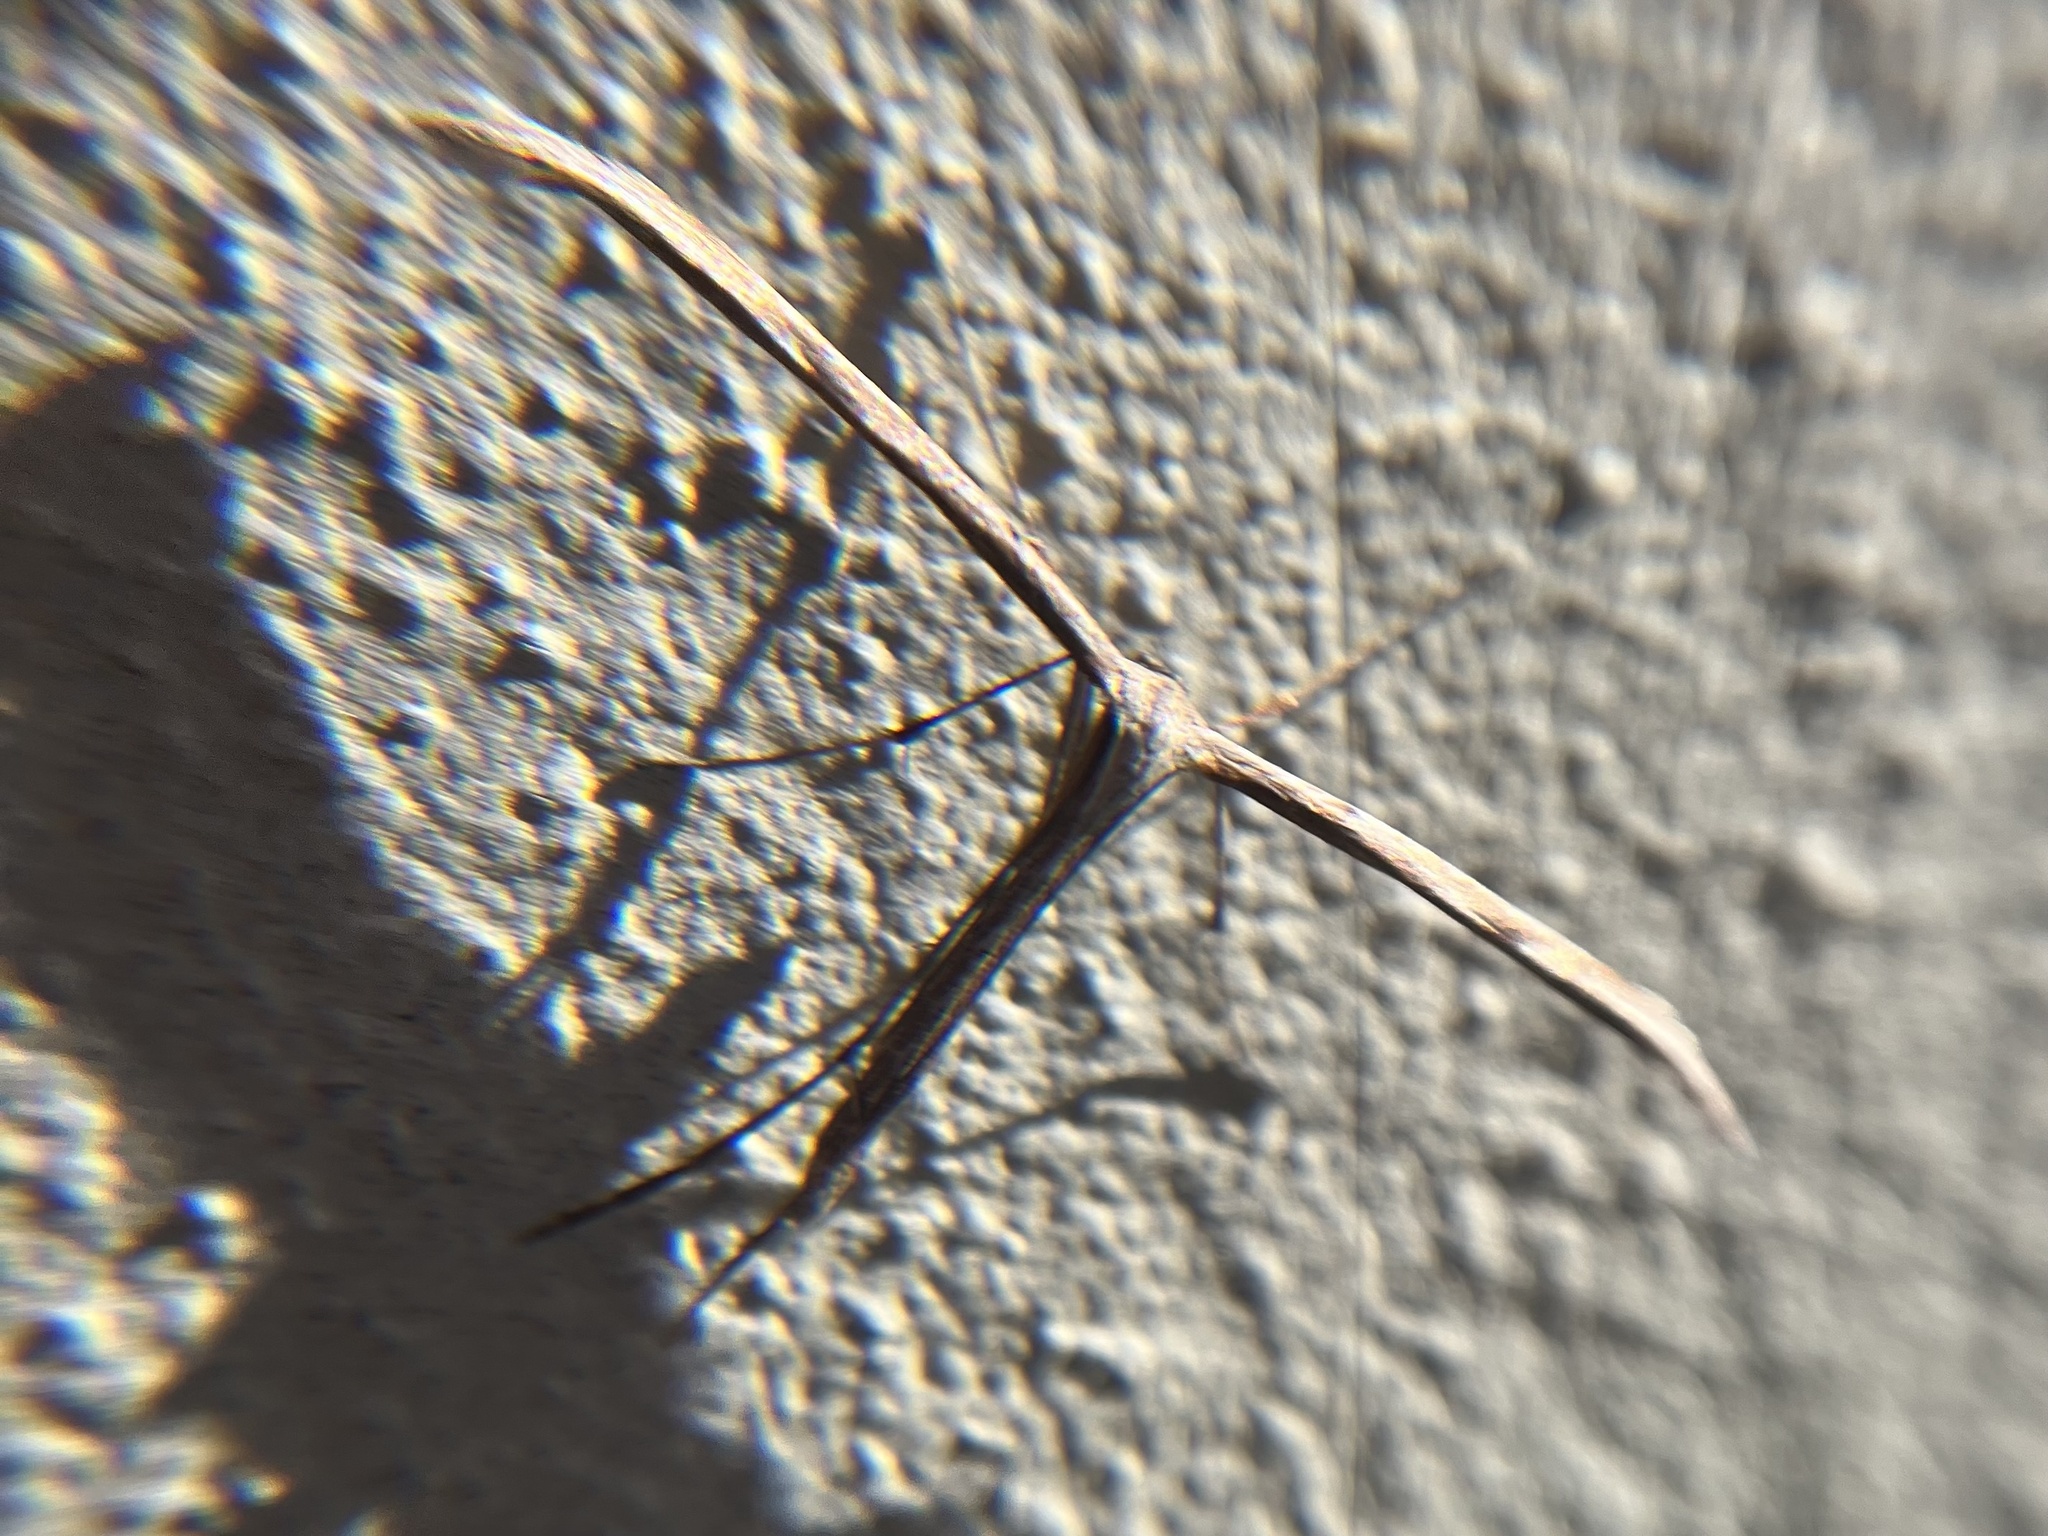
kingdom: Animalia
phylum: Arthropoda
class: Insecta
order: Lepidoptera
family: Pterophoridae
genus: Emmelina
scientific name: Emmelina monodactyla
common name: Common plume
